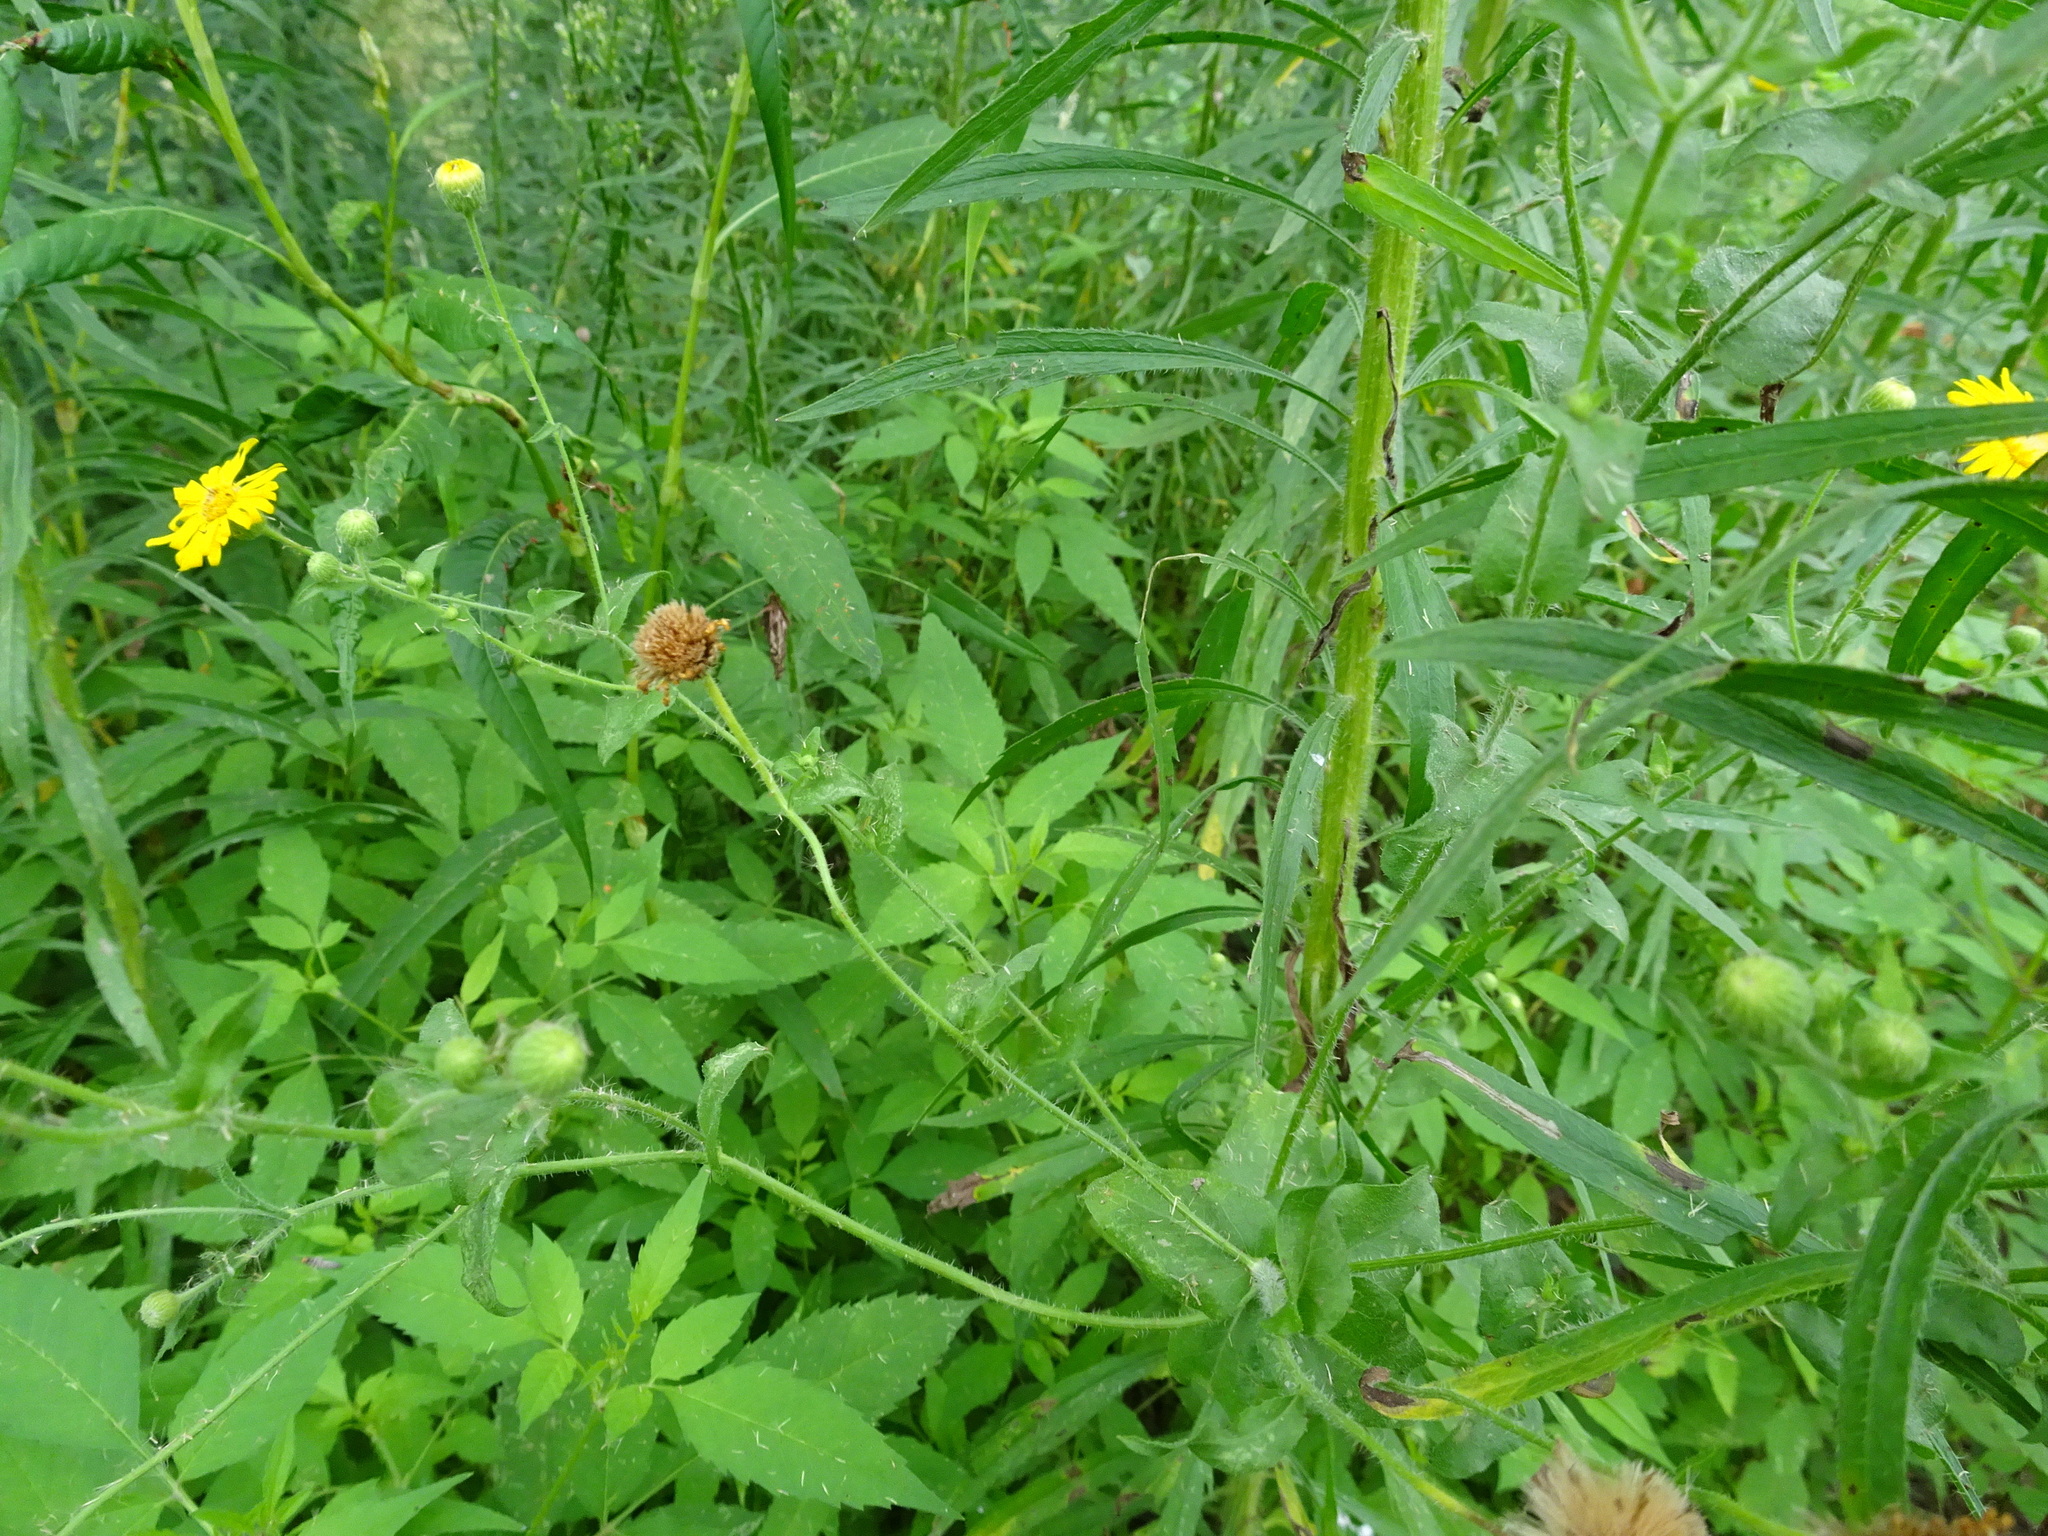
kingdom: Plantae
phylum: Tracheophyta
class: Magnoliopsida
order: Asterales
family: Asteraceae
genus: Heterotheca
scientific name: Heterotheca subaxillaris
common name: Camphorweed
